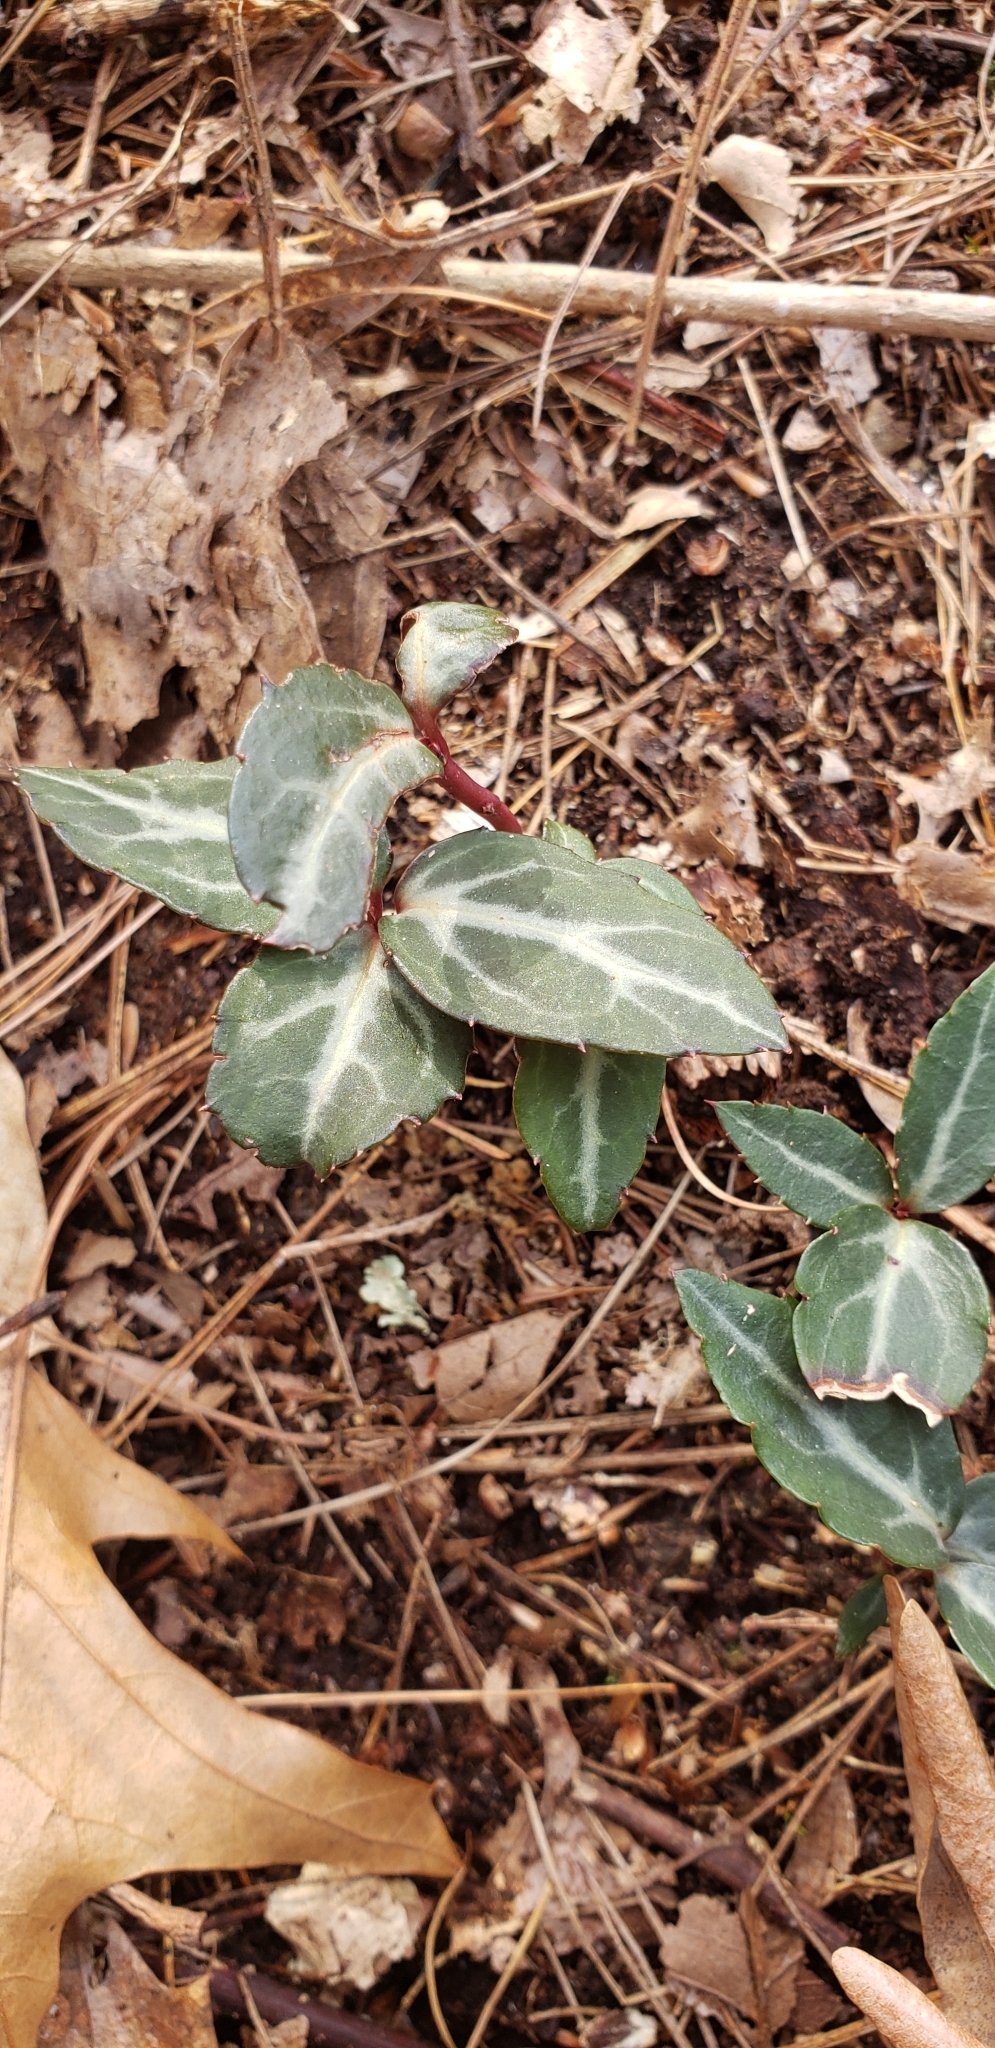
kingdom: Plantae
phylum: Tracheophyta
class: Magnoliopsida
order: Ericales
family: Ericaceae
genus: Chimaphila
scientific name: Chimaphila maculata
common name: Spotted pipsissewa
